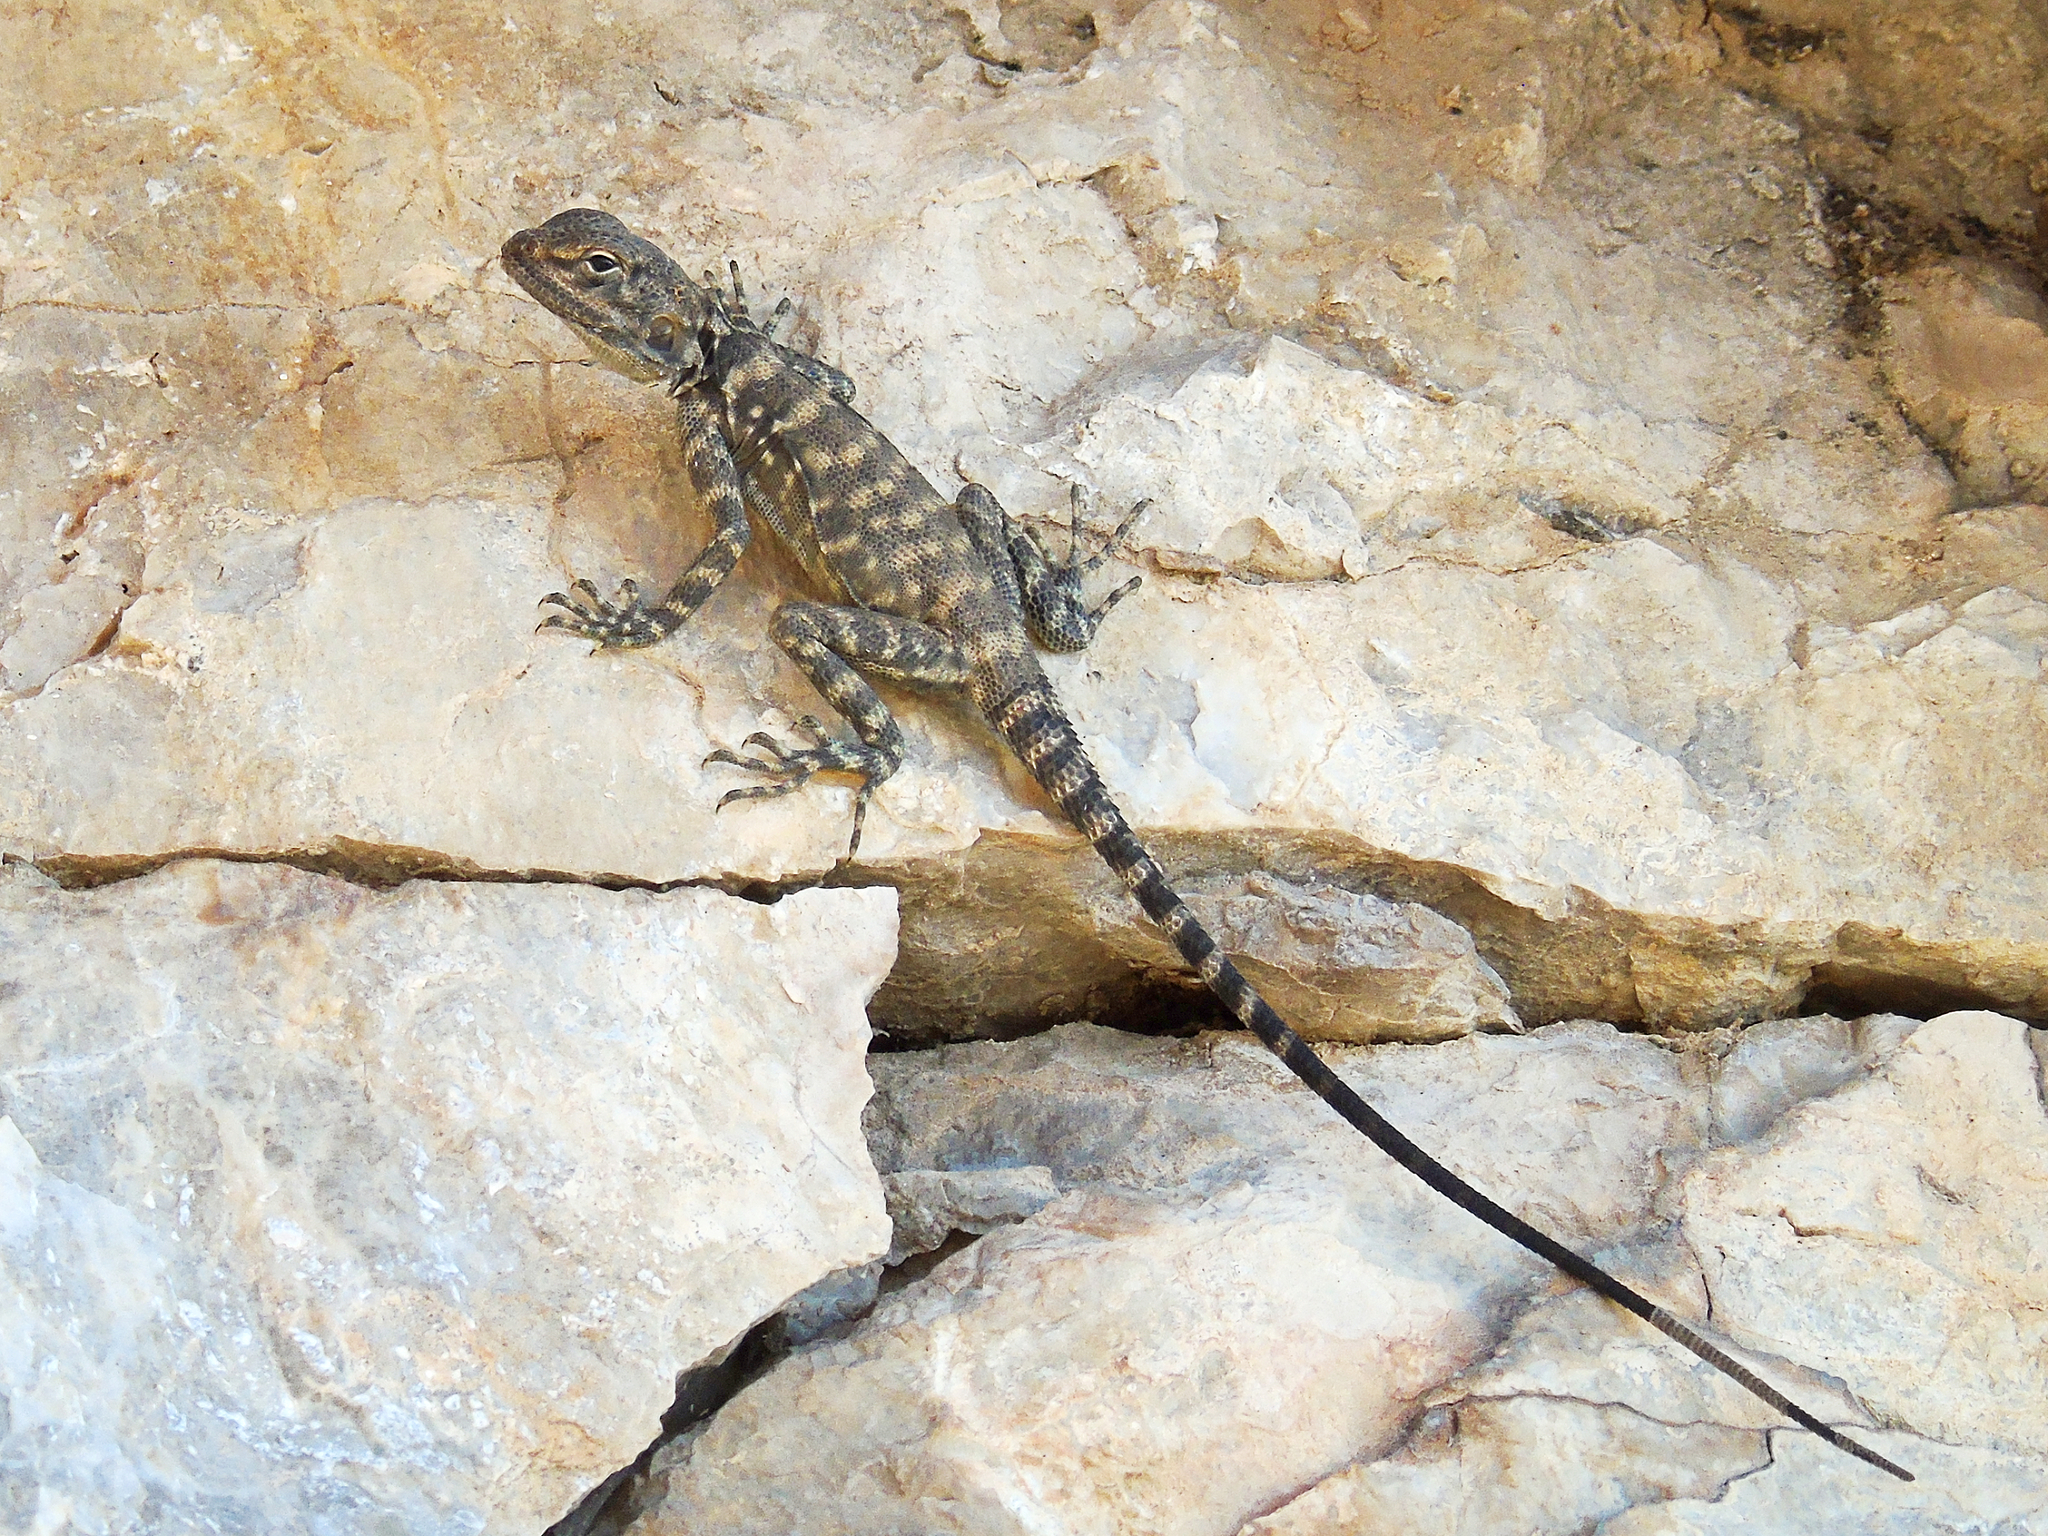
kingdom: Animalia
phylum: Chordata
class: Squamata
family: Agamidae
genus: Laudakia
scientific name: Laudakia nupta
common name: Large-headed rock agama
